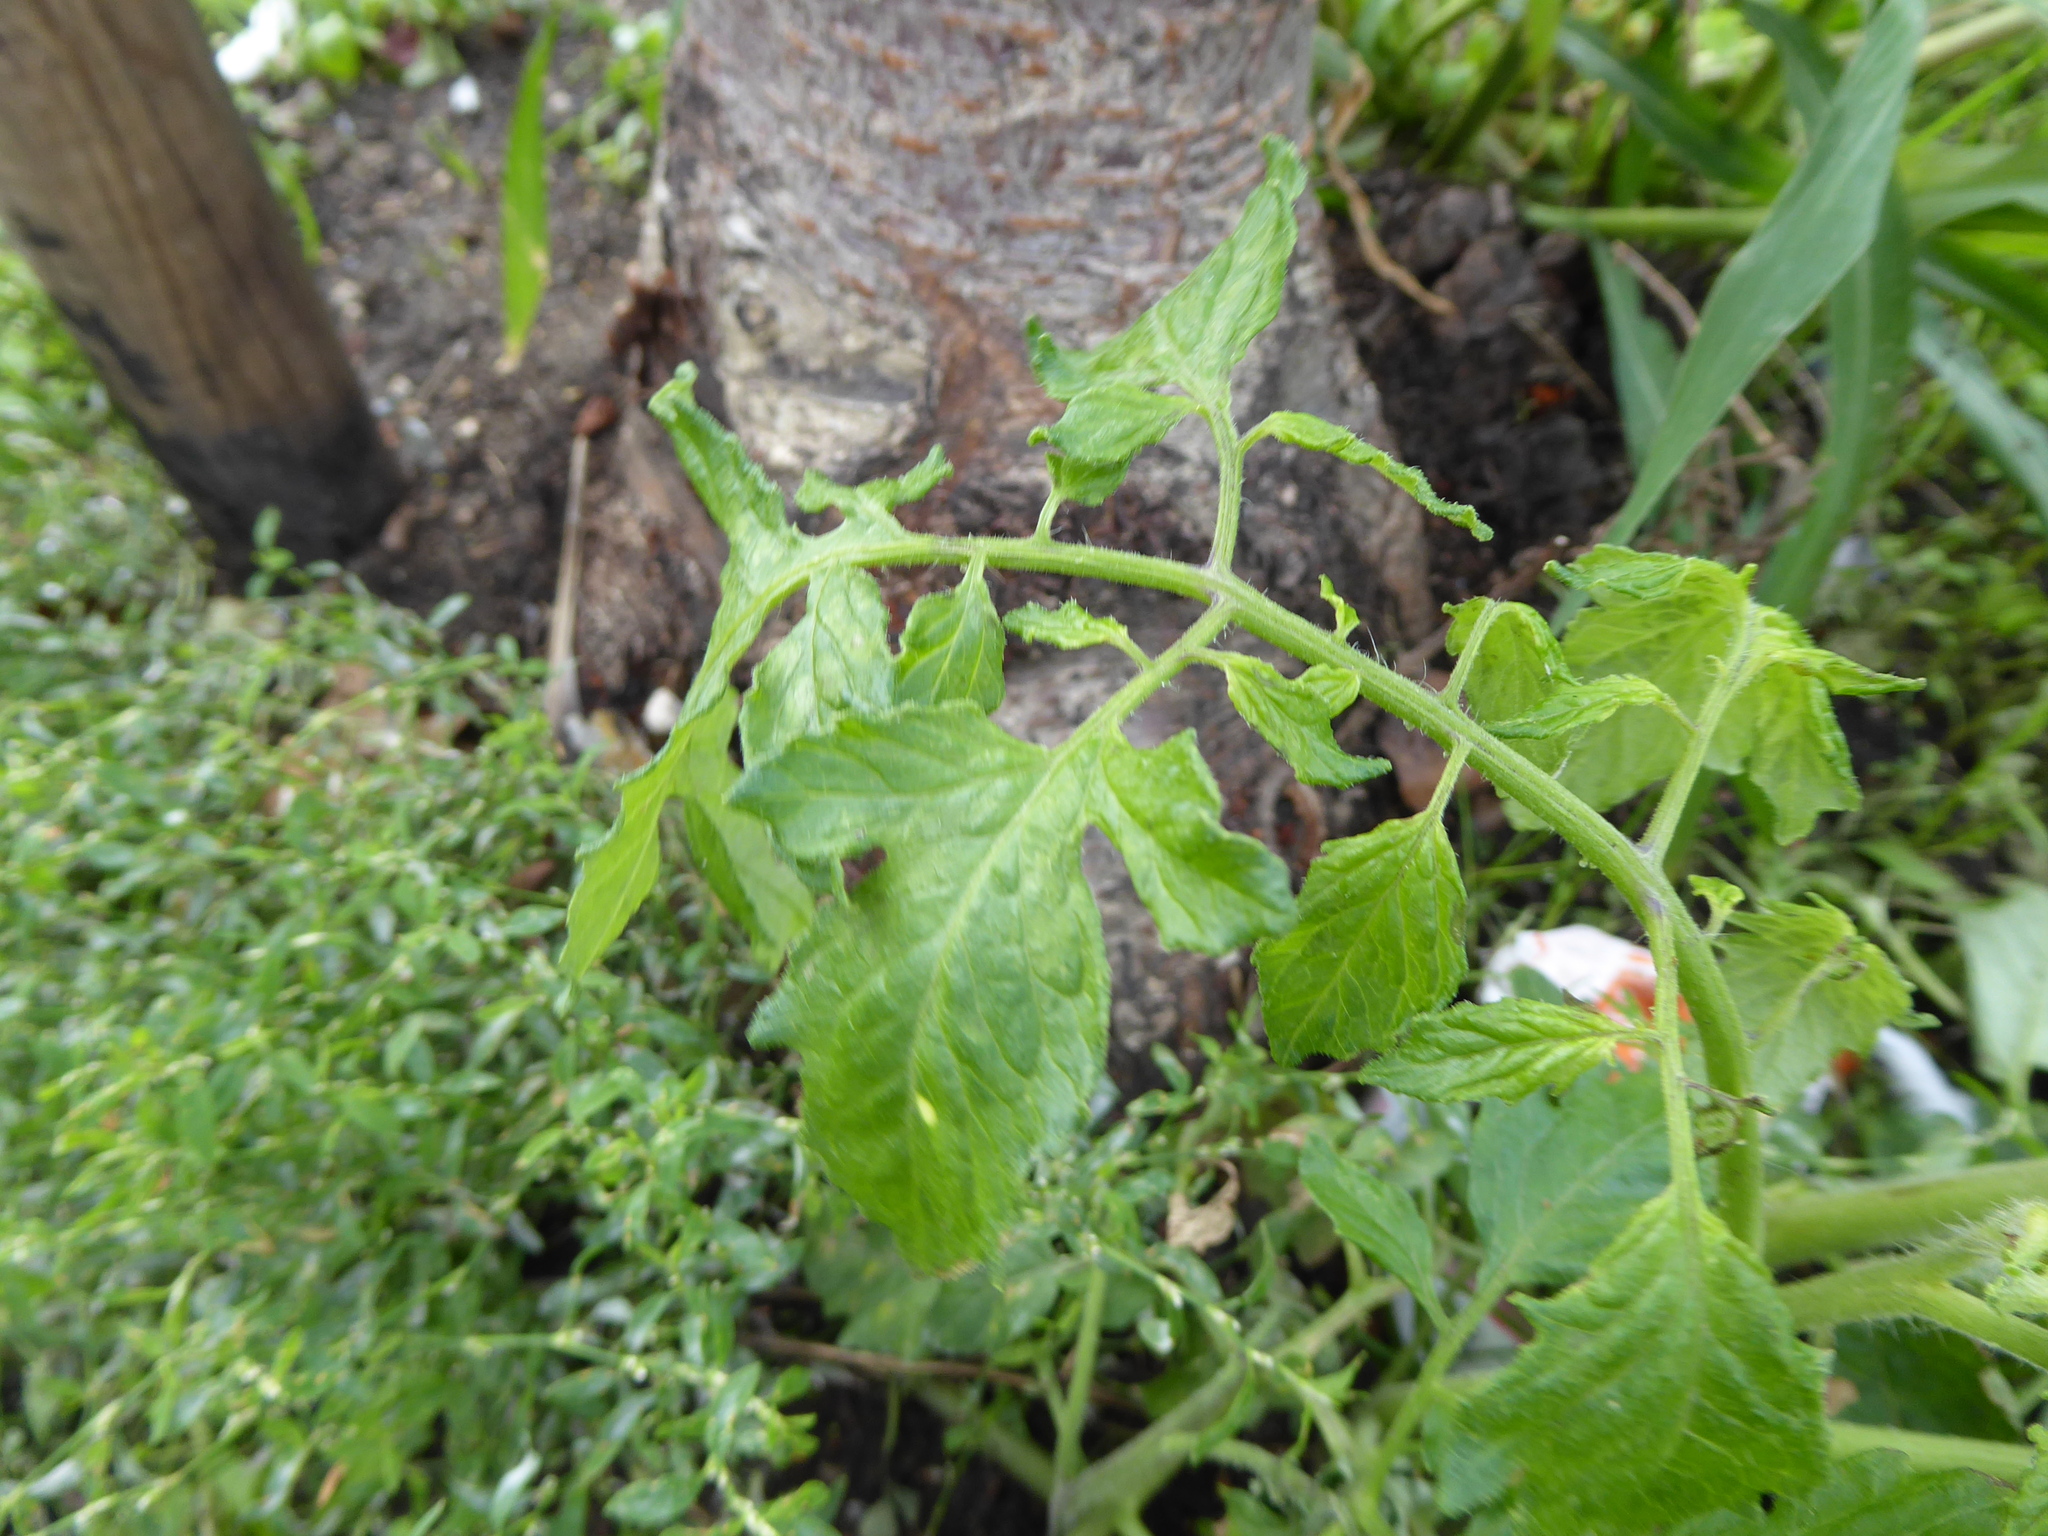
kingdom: Plantae
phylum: Tracheophyta
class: Magnoliopsida
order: Solanales
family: Solanaceae
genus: Solanum
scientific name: Solanum lycopersicum
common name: Garden tomato
